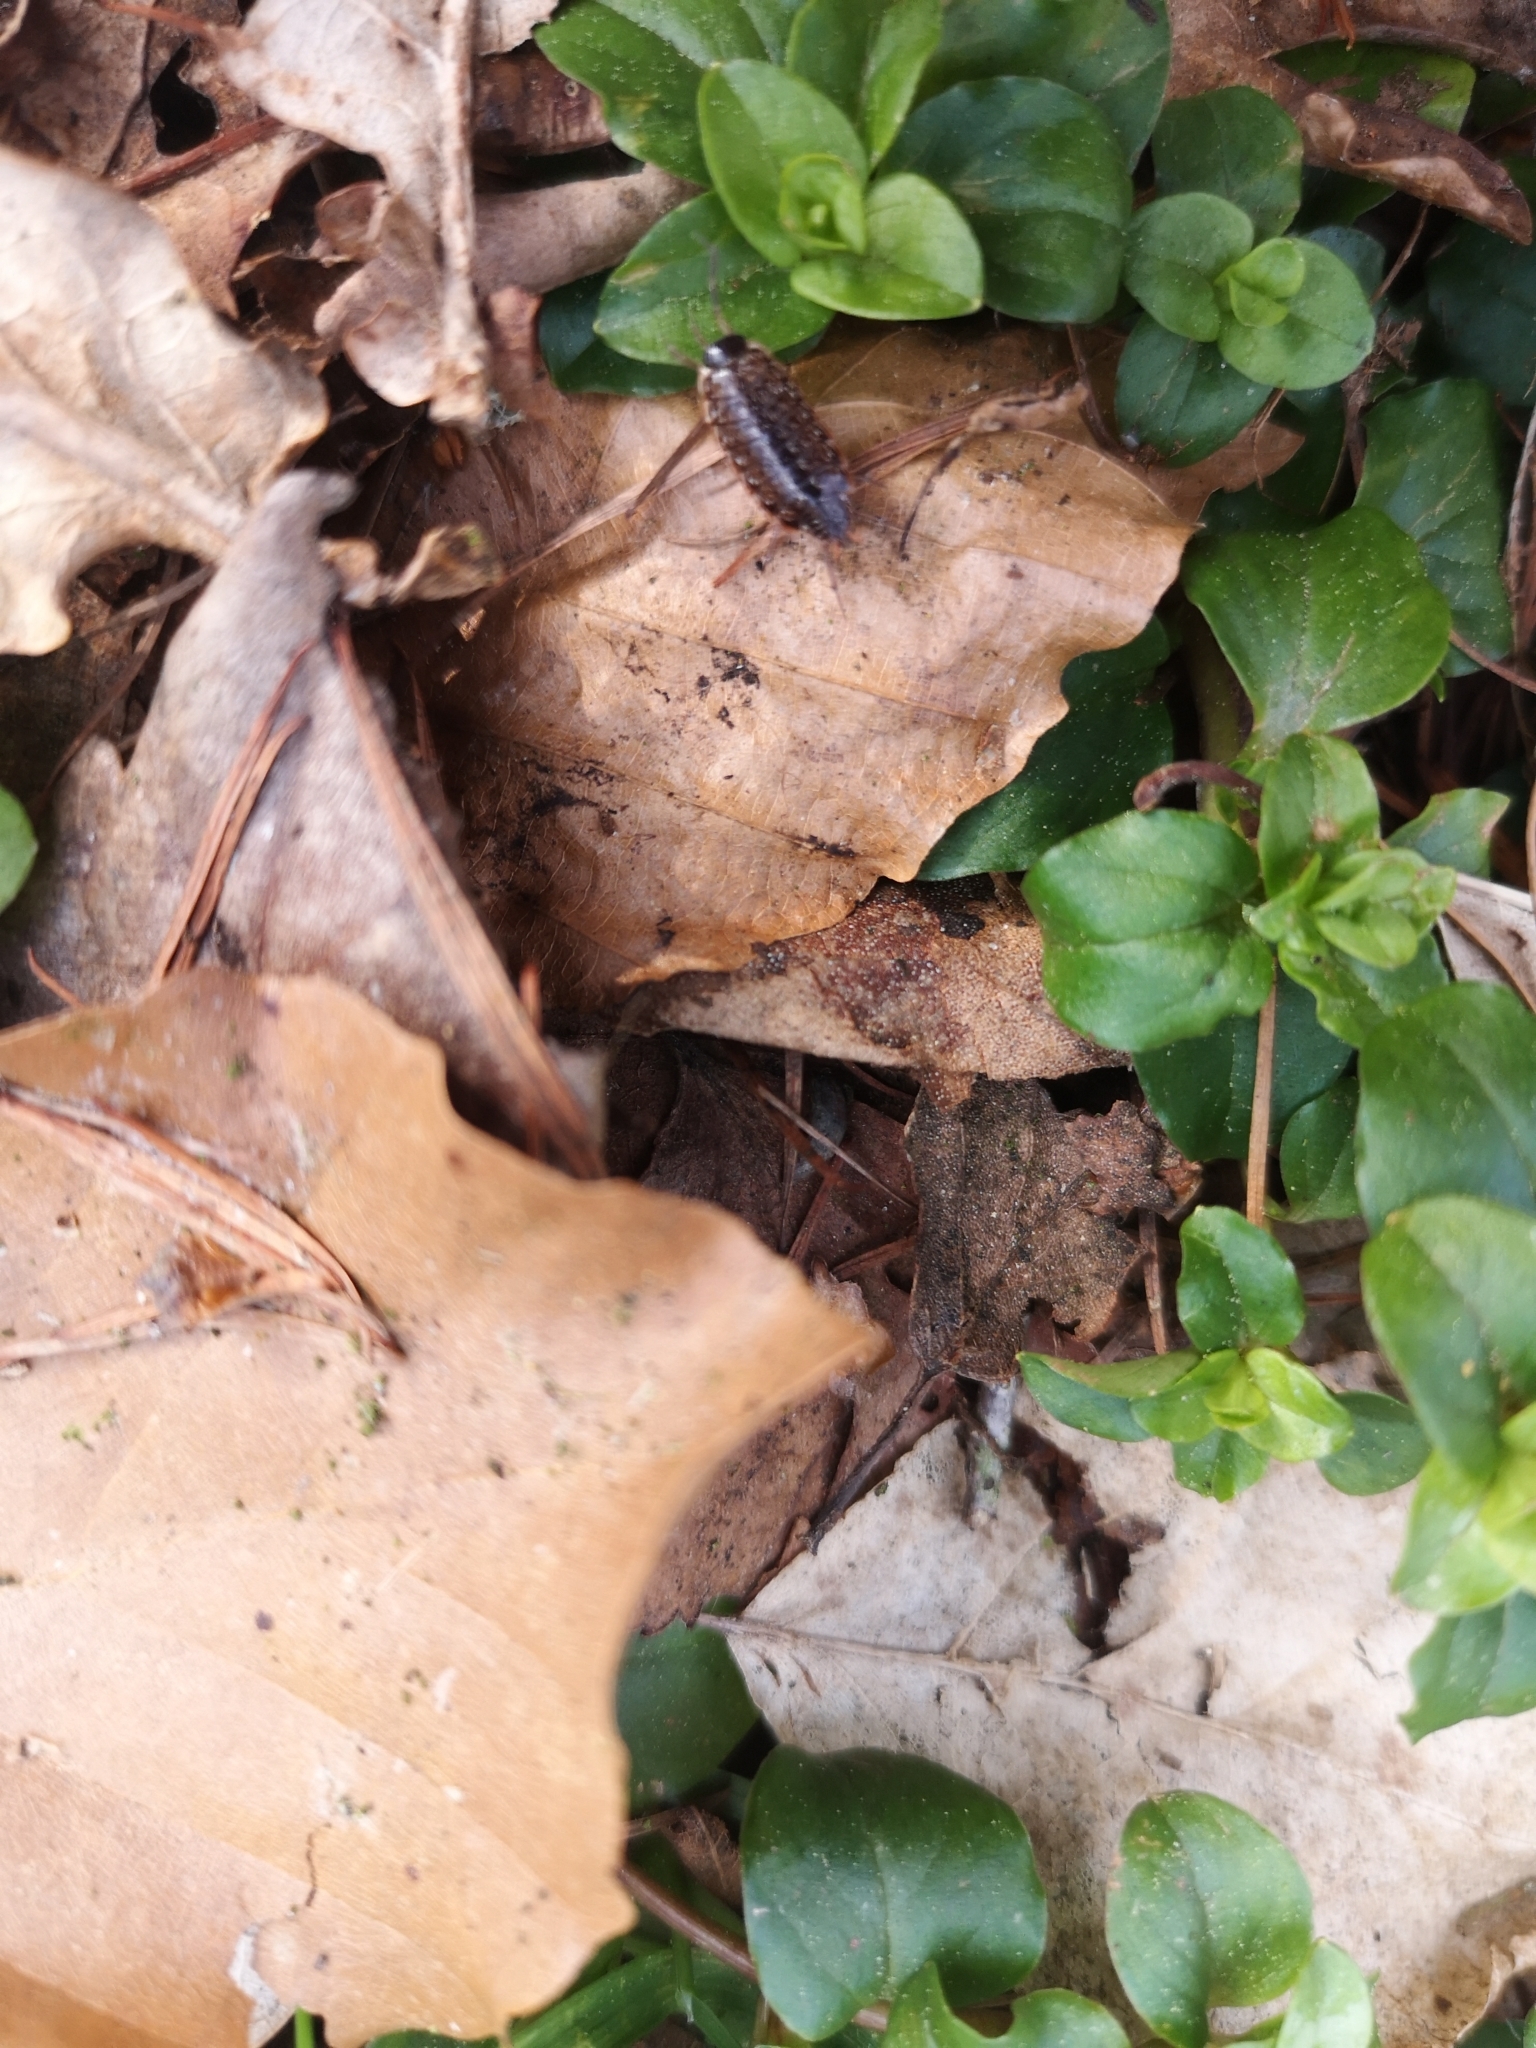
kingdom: Animalia
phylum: Arthropoda
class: Malacostraca
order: Isopoda
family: Philosciidae
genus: Philoscia
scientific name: Philoscia muscorum
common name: Common striped woodlouse
